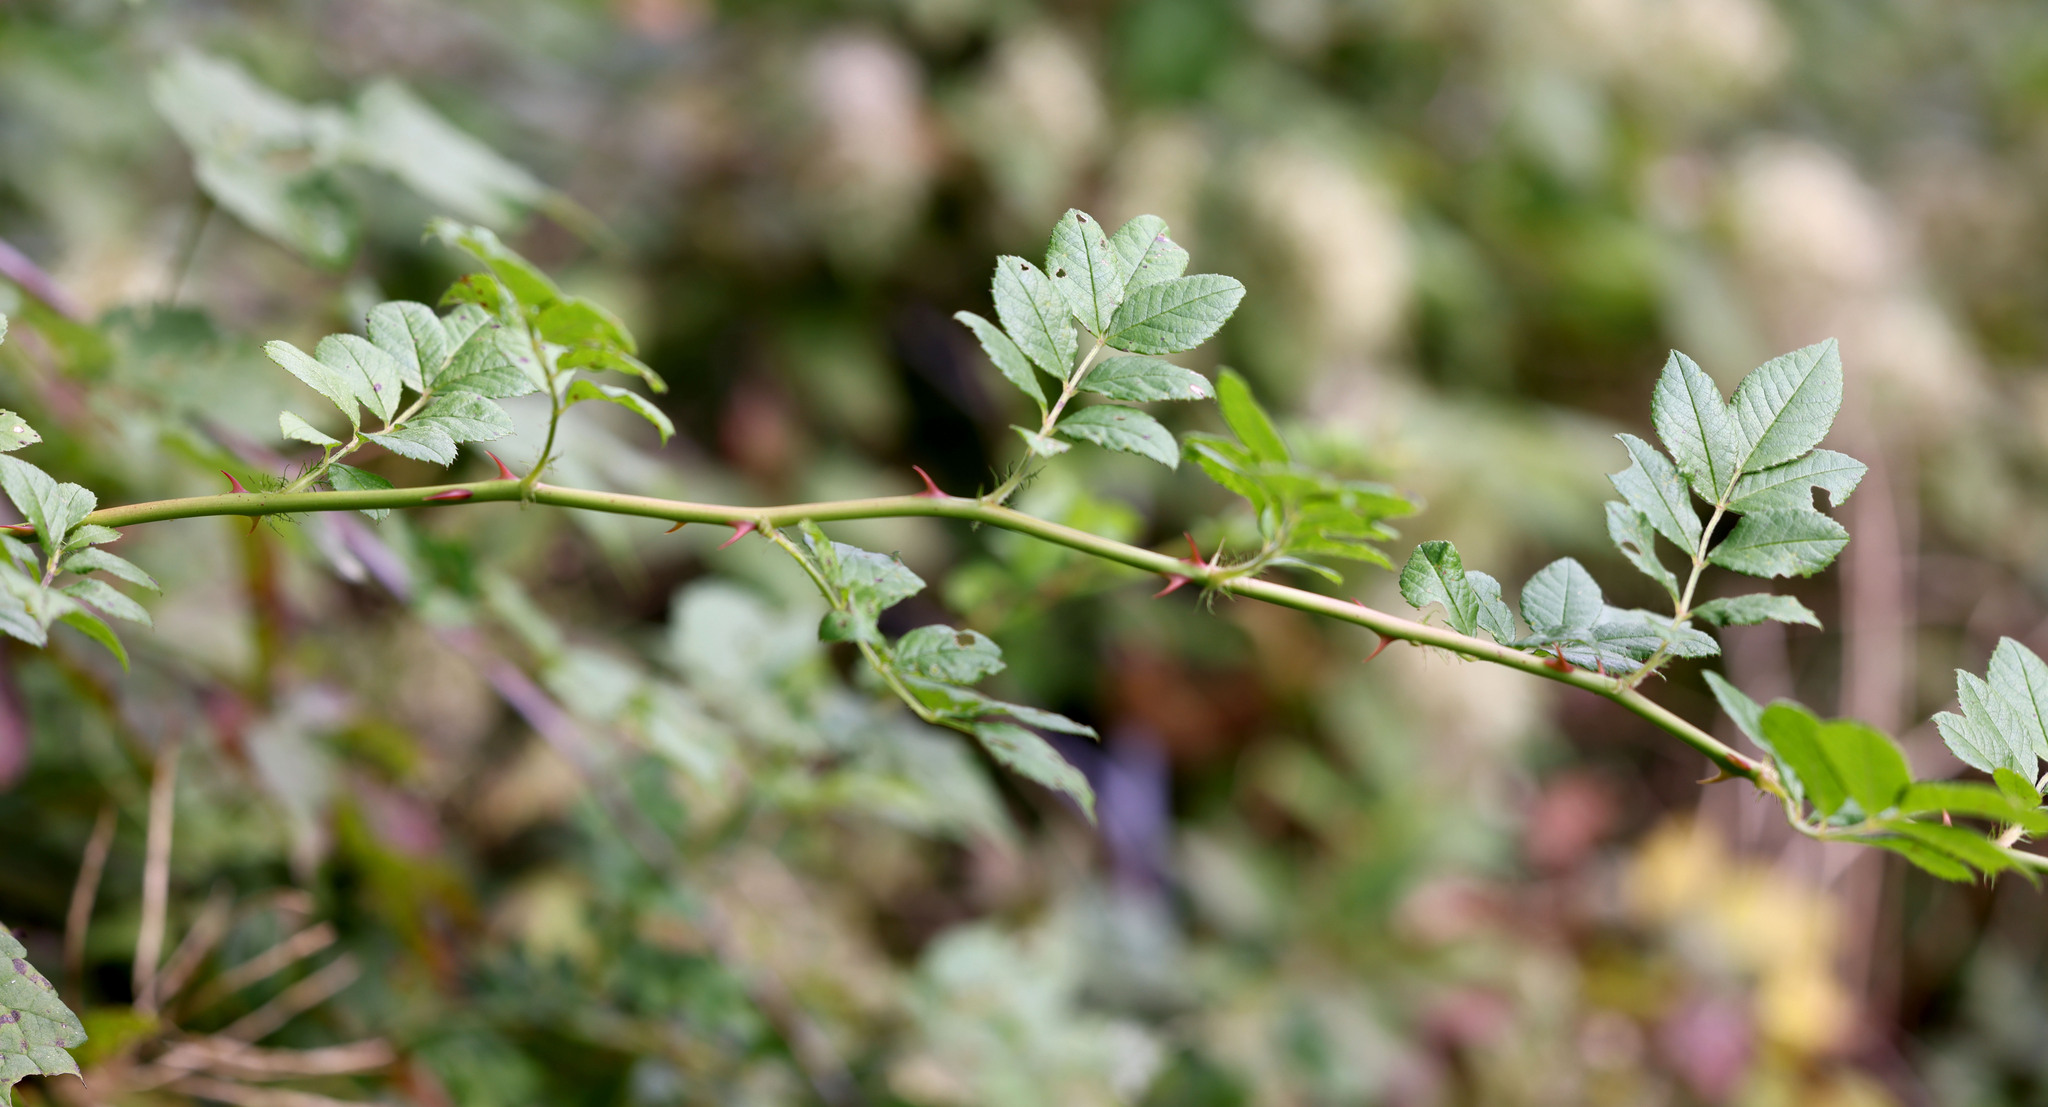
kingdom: Plantae
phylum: Tracheophyta
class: Magnoliopsida
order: Rosales
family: Rosaceae
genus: Rosa
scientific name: Rosa multiflora
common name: Multiflora rose
